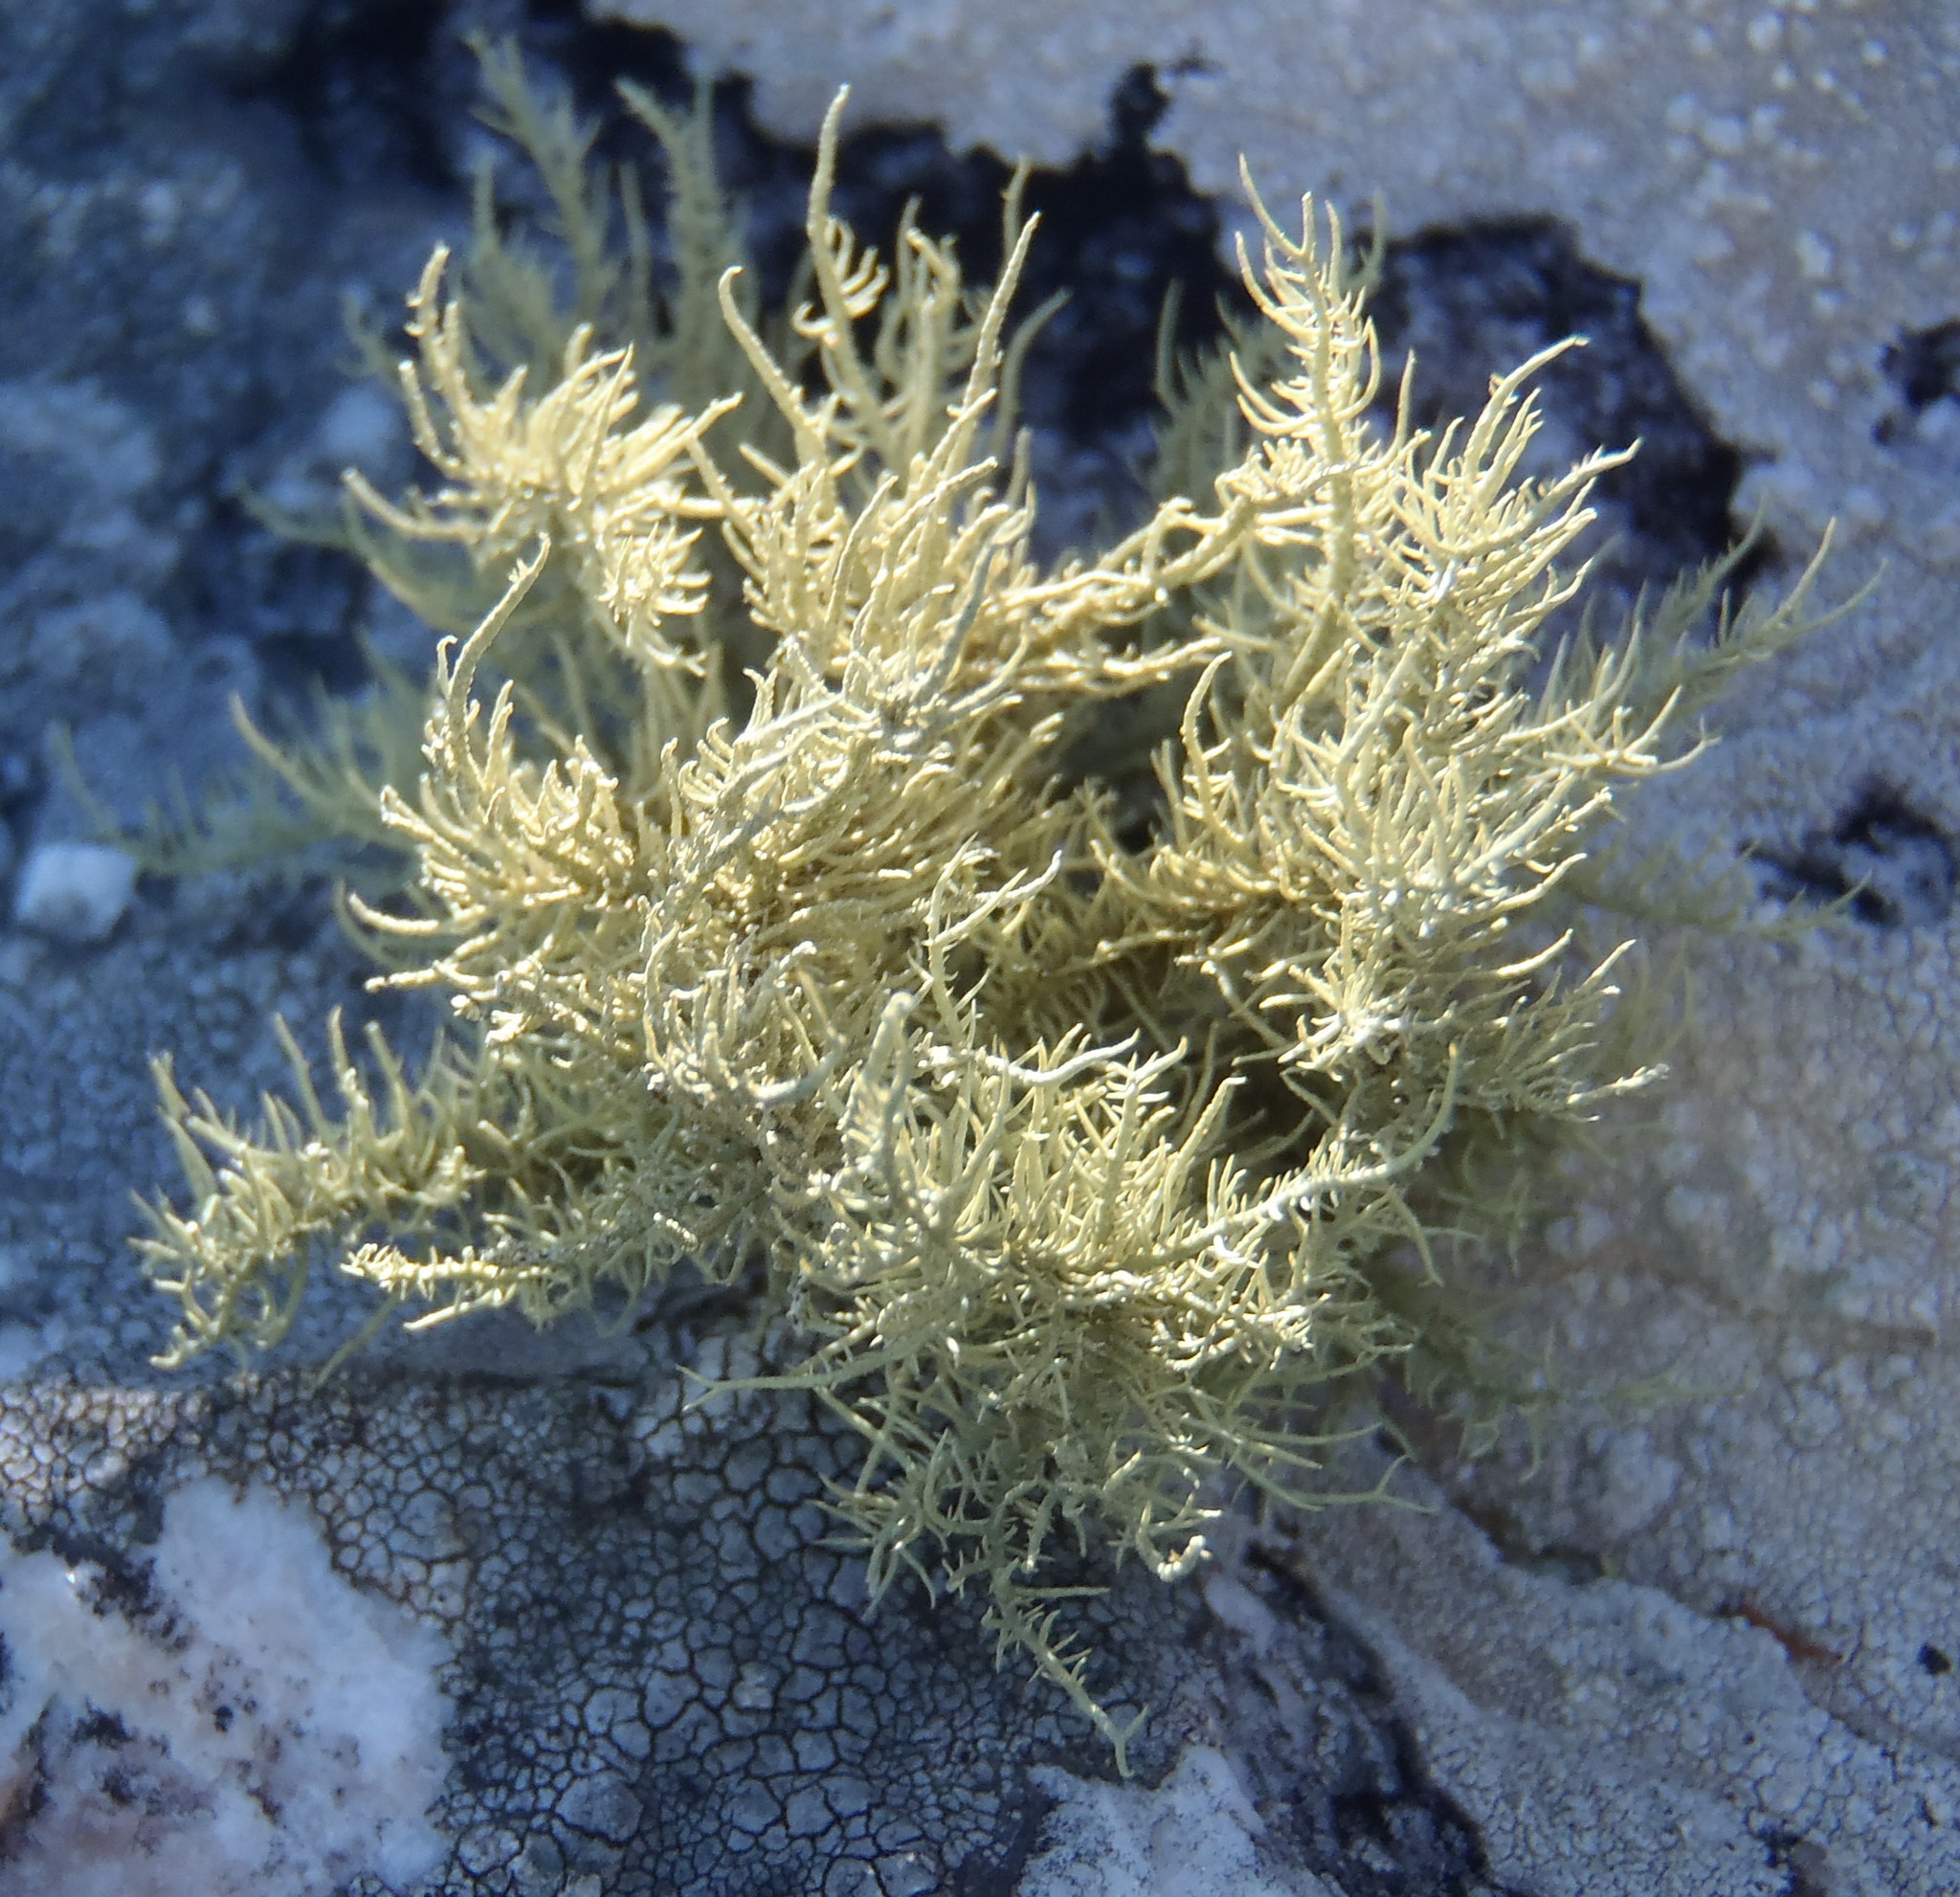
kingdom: Fungi
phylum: Ascomycota
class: Lecanoromycetes
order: Lecanorales
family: Parmeliaceae
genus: Usnea
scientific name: Usnea pulvinata
